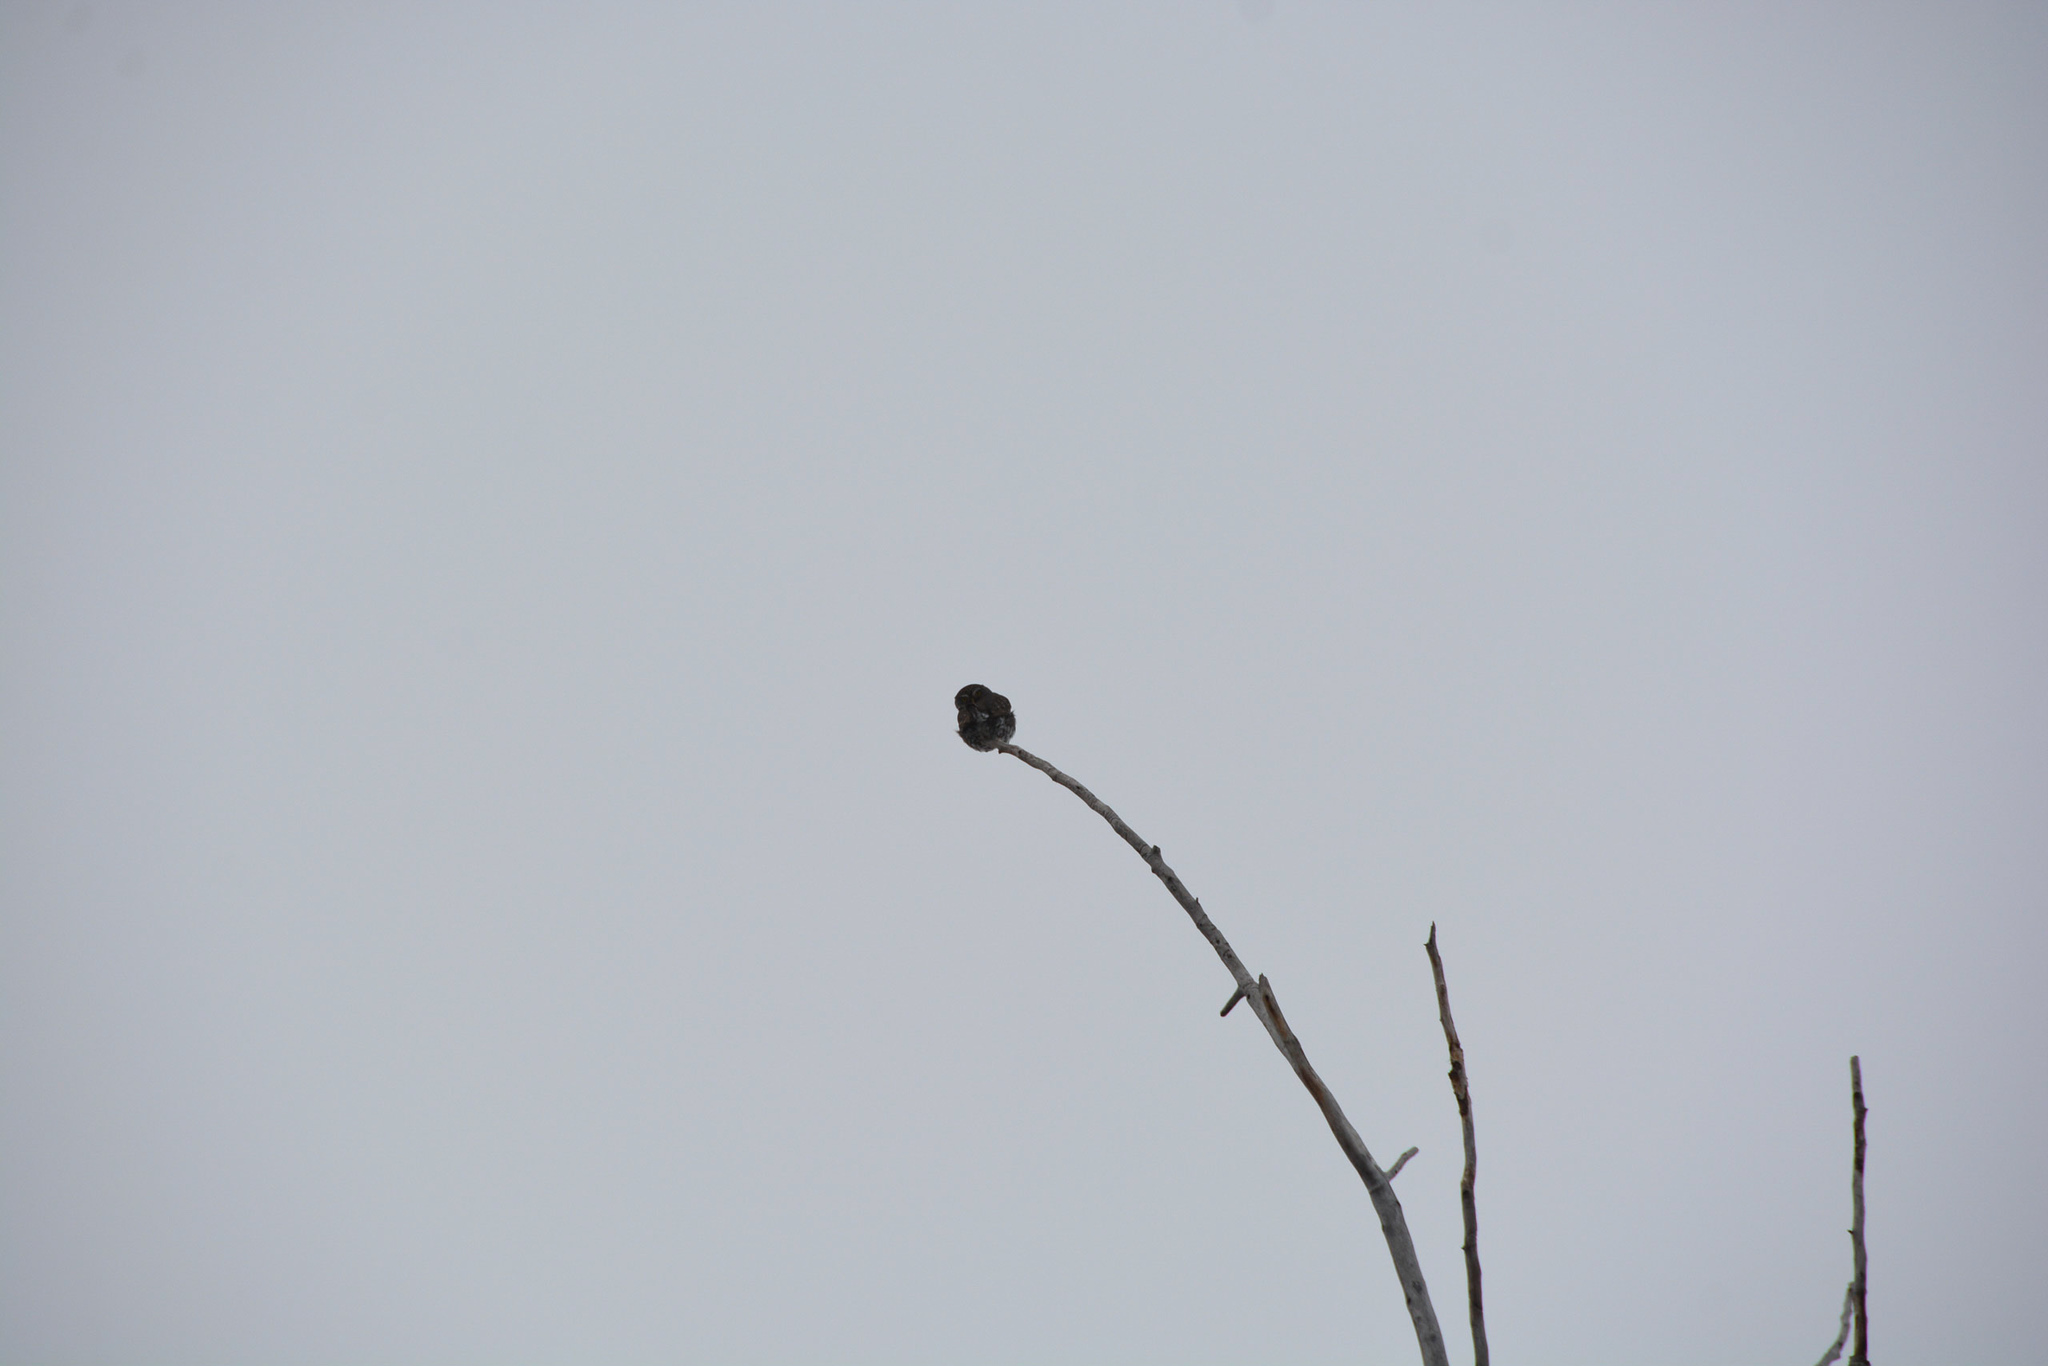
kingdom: Animalia
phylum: Chordata
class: Aves
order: Strigiformes
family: Strigidae
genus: Glaucidium
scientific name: Glaucidium gnoma
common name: Northern pygmy-owl
